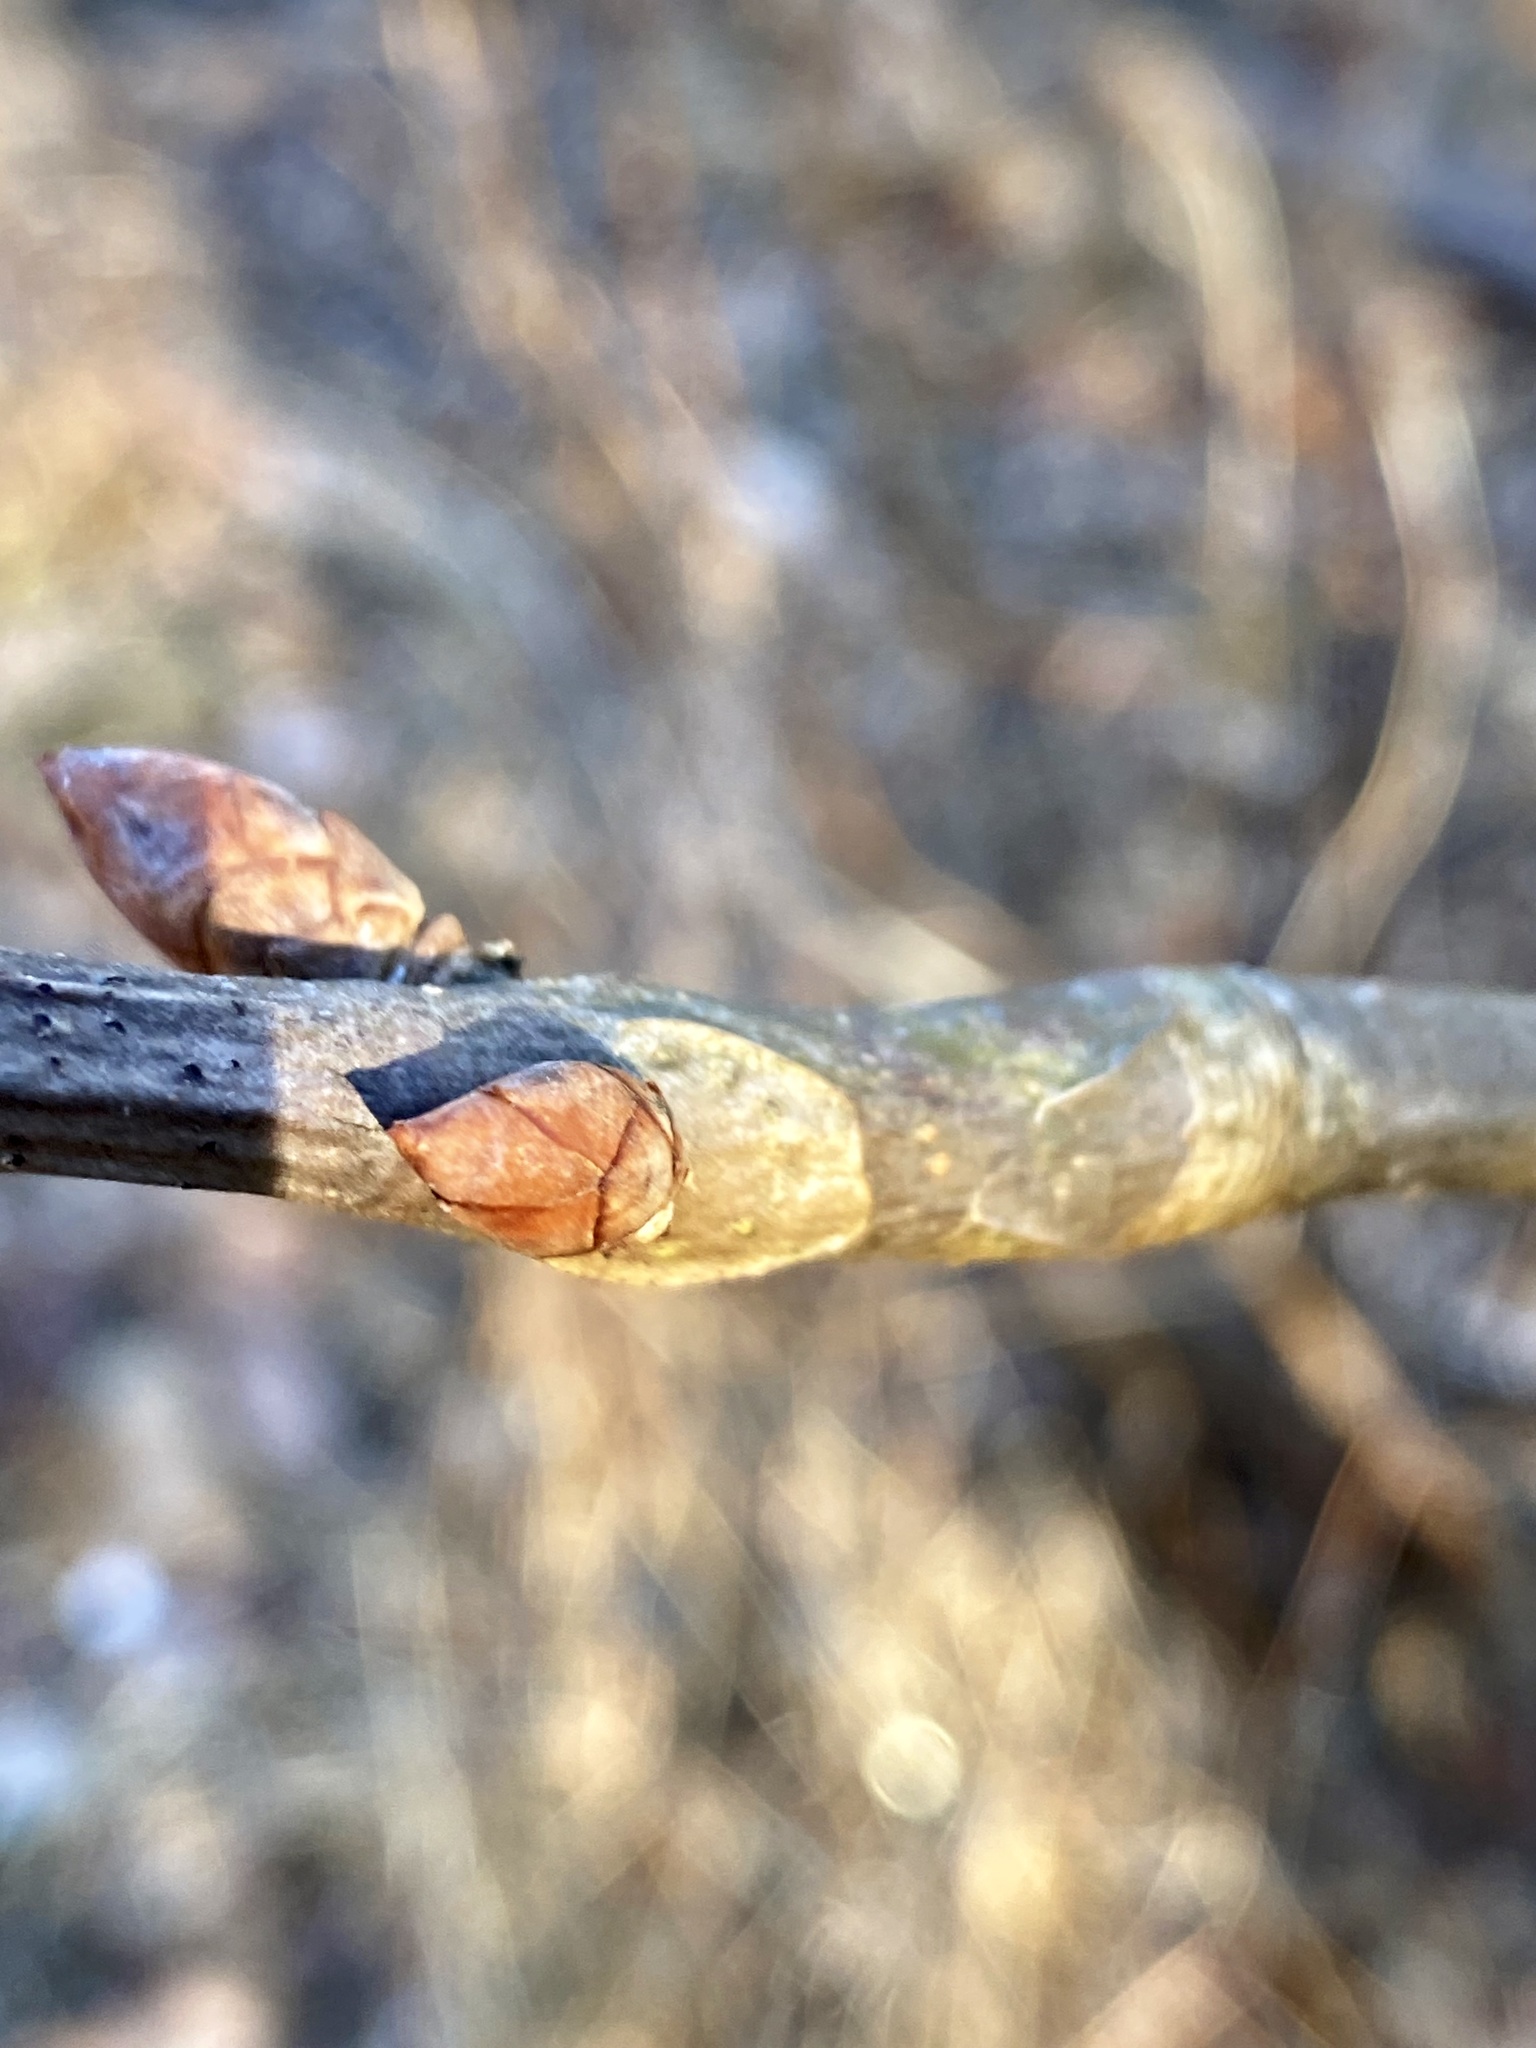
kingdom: Plantae
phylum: Tracheophyta
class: Magnoliopsida
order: Sapindales
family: Sapindaceae
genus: Aesculus
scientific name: Aesculus flava
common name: Yellow buckeye
